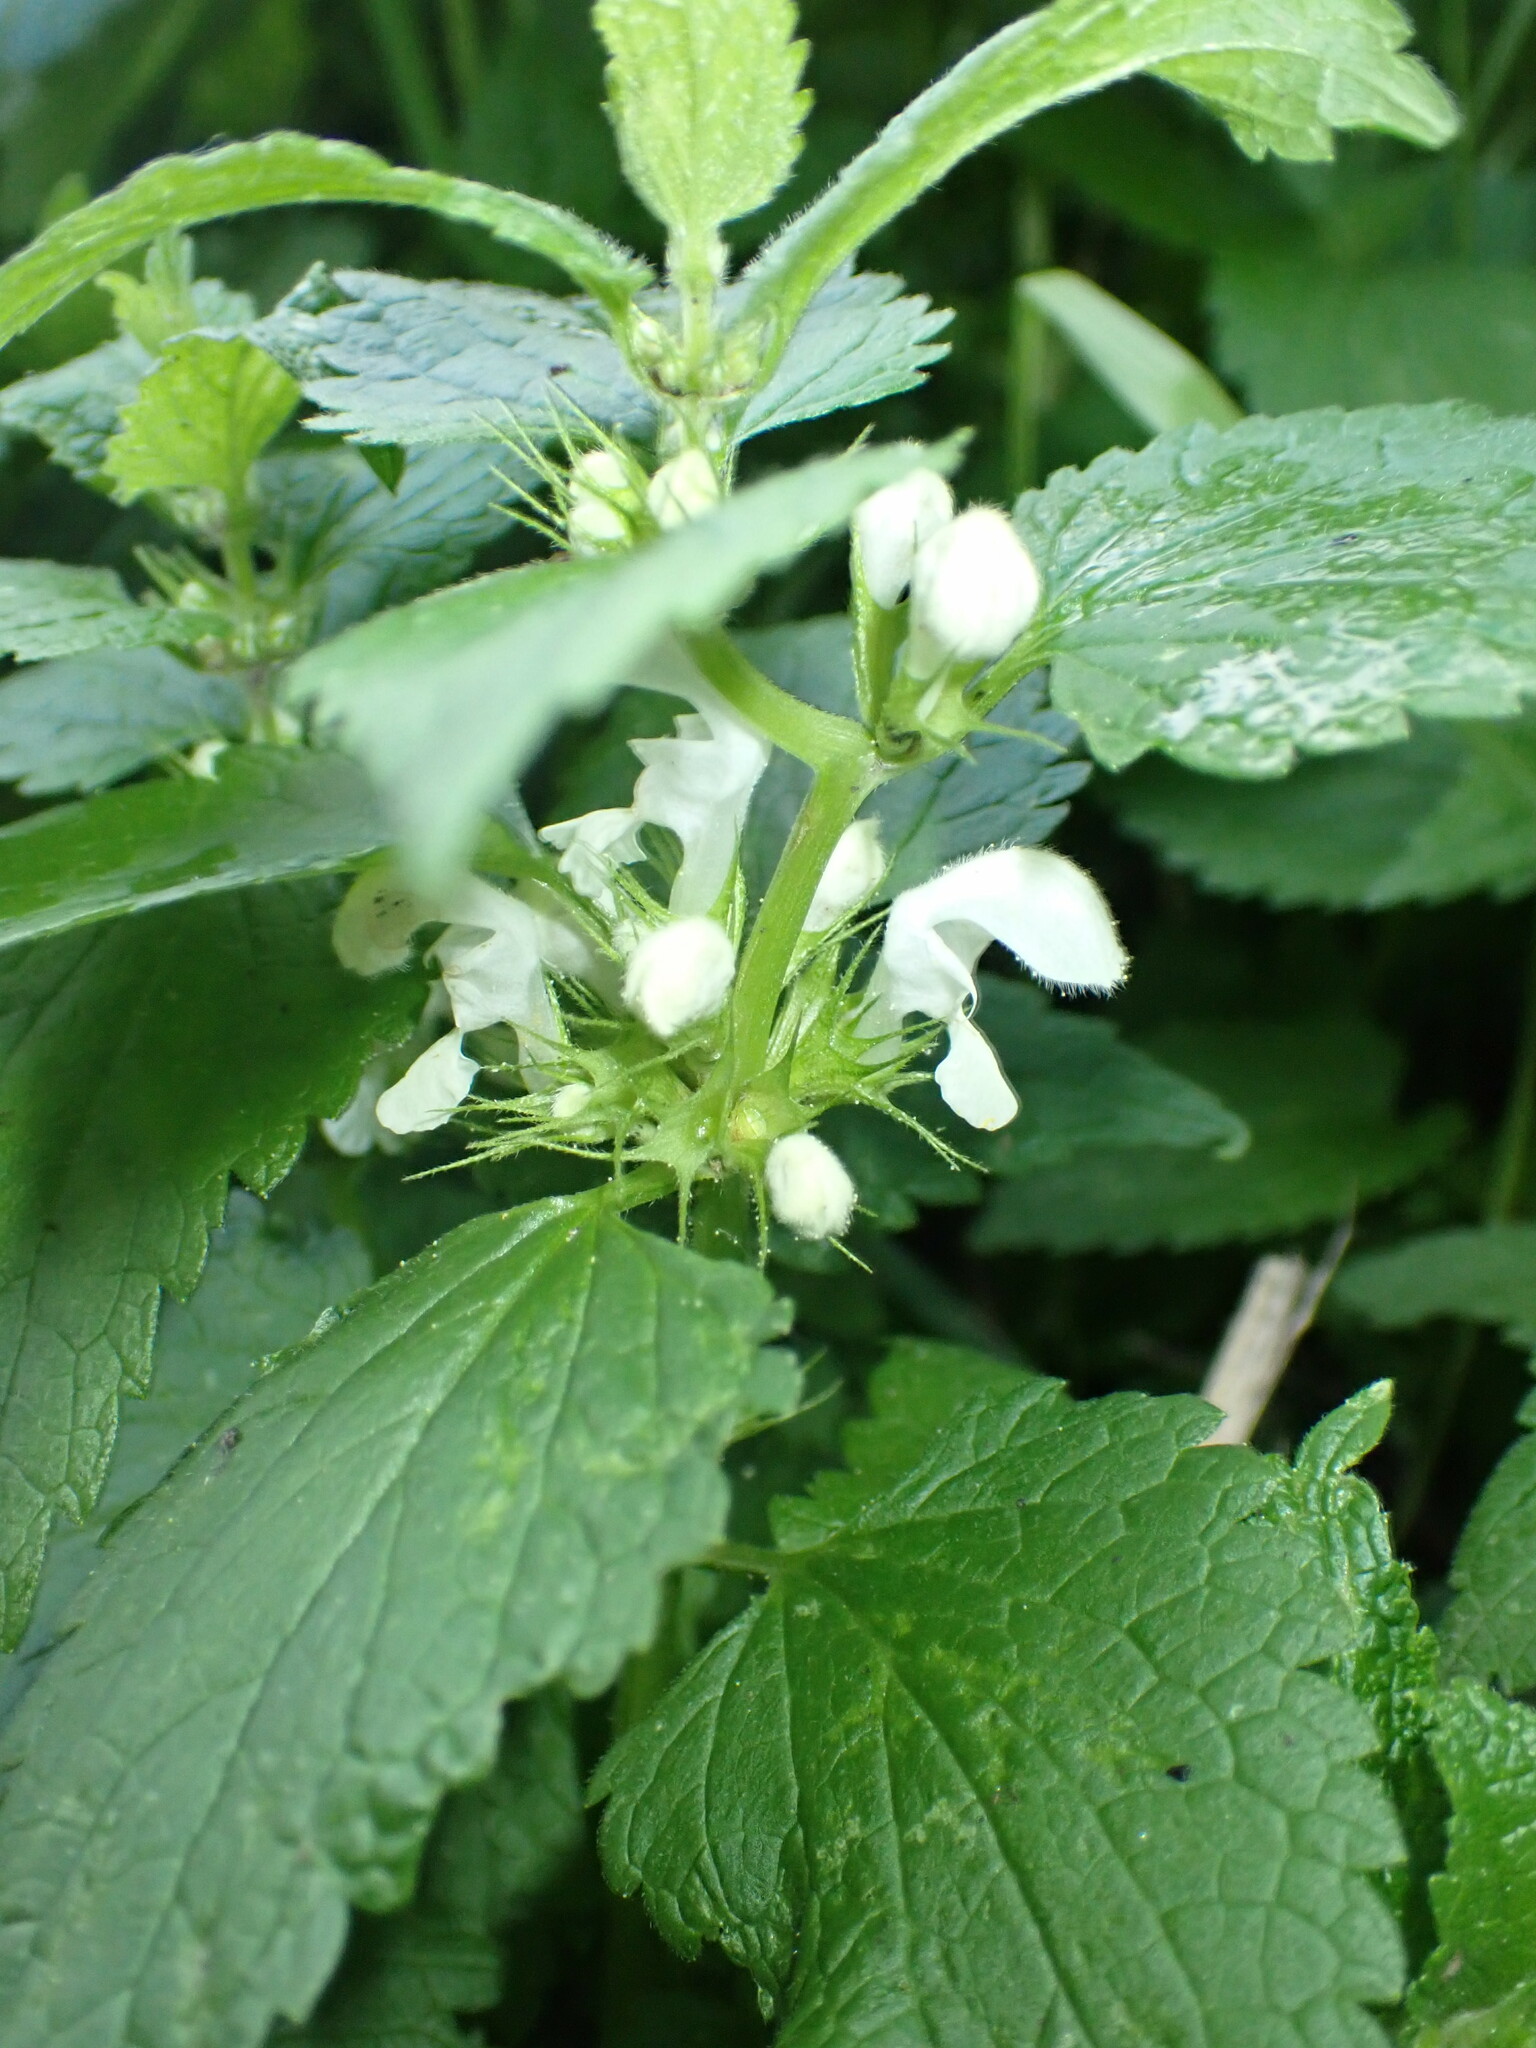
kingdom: Plantae
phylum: Tracheophyta
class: Magnoliopsida
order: Lamiales
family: Lamiaceae
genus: Lamium
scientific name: Lamium album
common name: White dead-nettle
